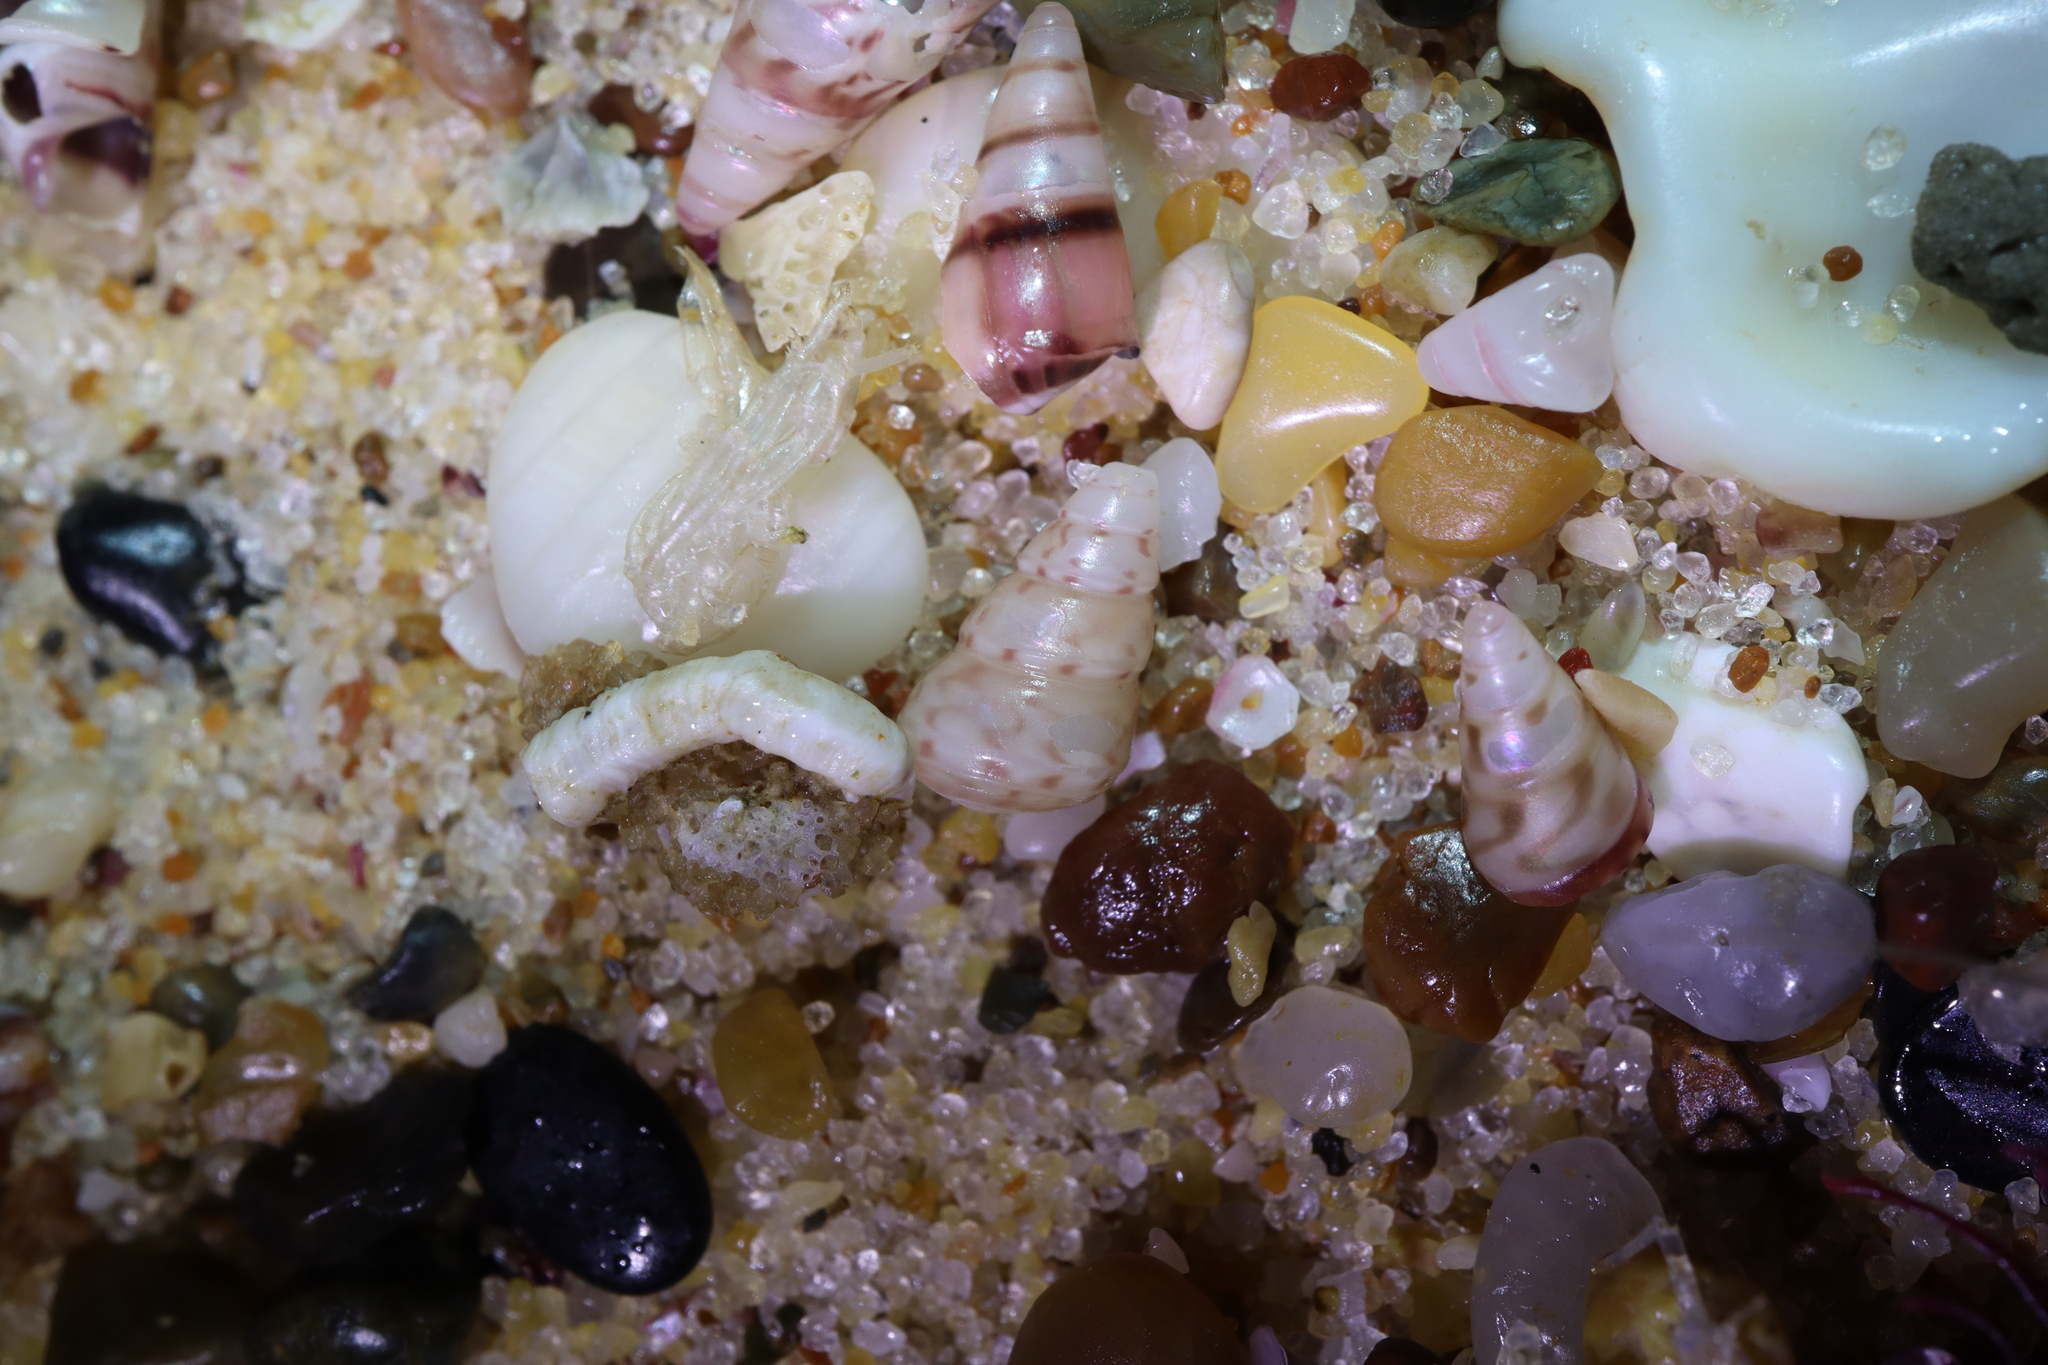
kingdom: Animalia
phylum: Mollusca
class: Gastropoda
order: Trochida
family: Trochidae
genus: Leiopyrga
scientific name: Leiopyrga lineolaris
